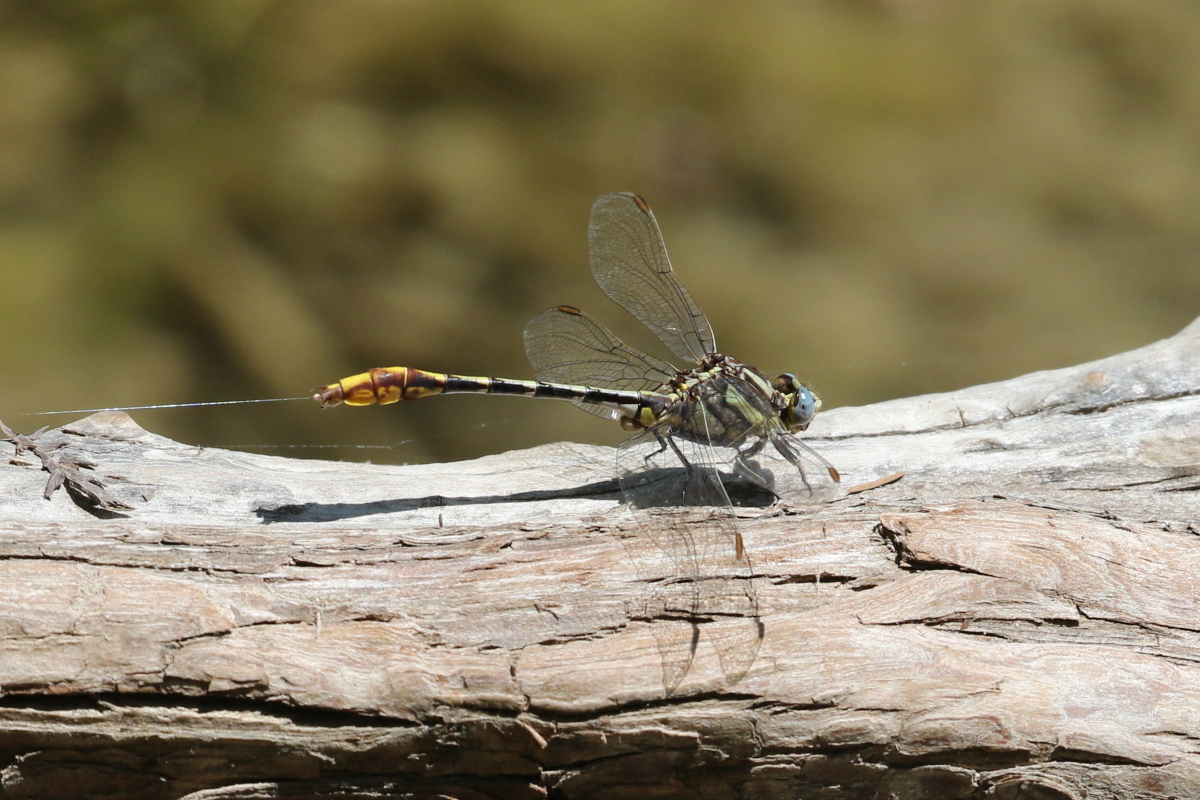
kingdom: Animalia
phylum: Arthropoda
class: Insecta
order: Odonata
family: Gomphidae
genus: Phanogomphus
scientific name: Phanogomphus militaris
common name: Sulphur-tipped clubtail
